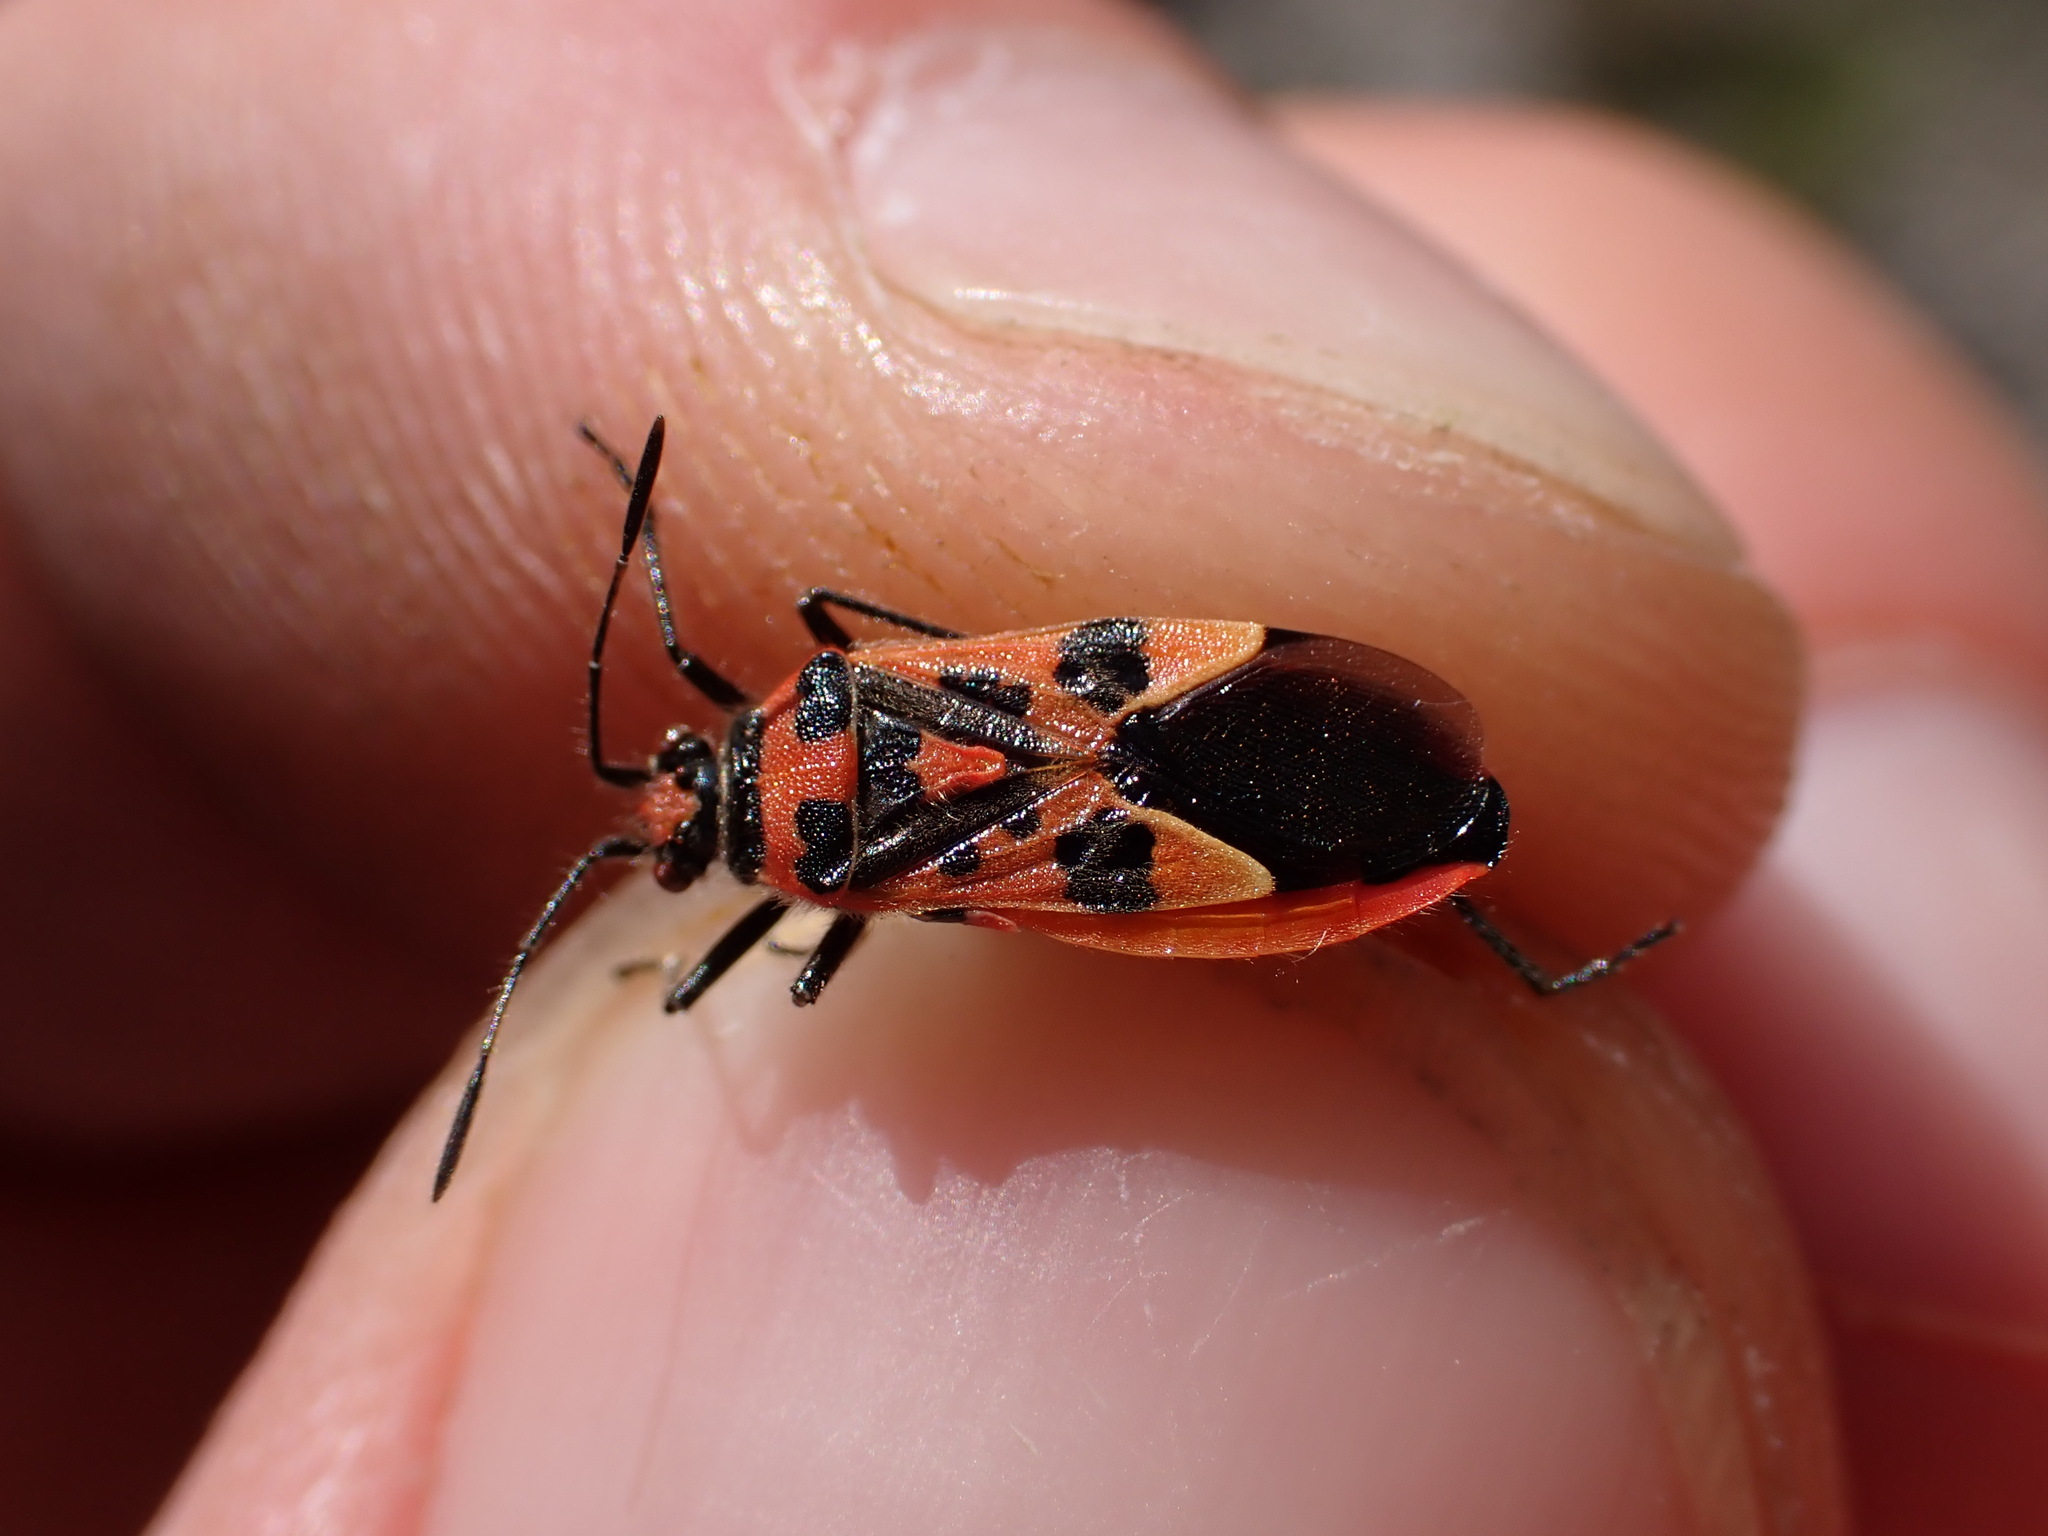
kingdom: Animalia
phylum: Arthropoda
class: Insecta
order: Hemiptera
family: Rhopalidae
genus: Corizus
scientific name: Corizus hyoscyami
